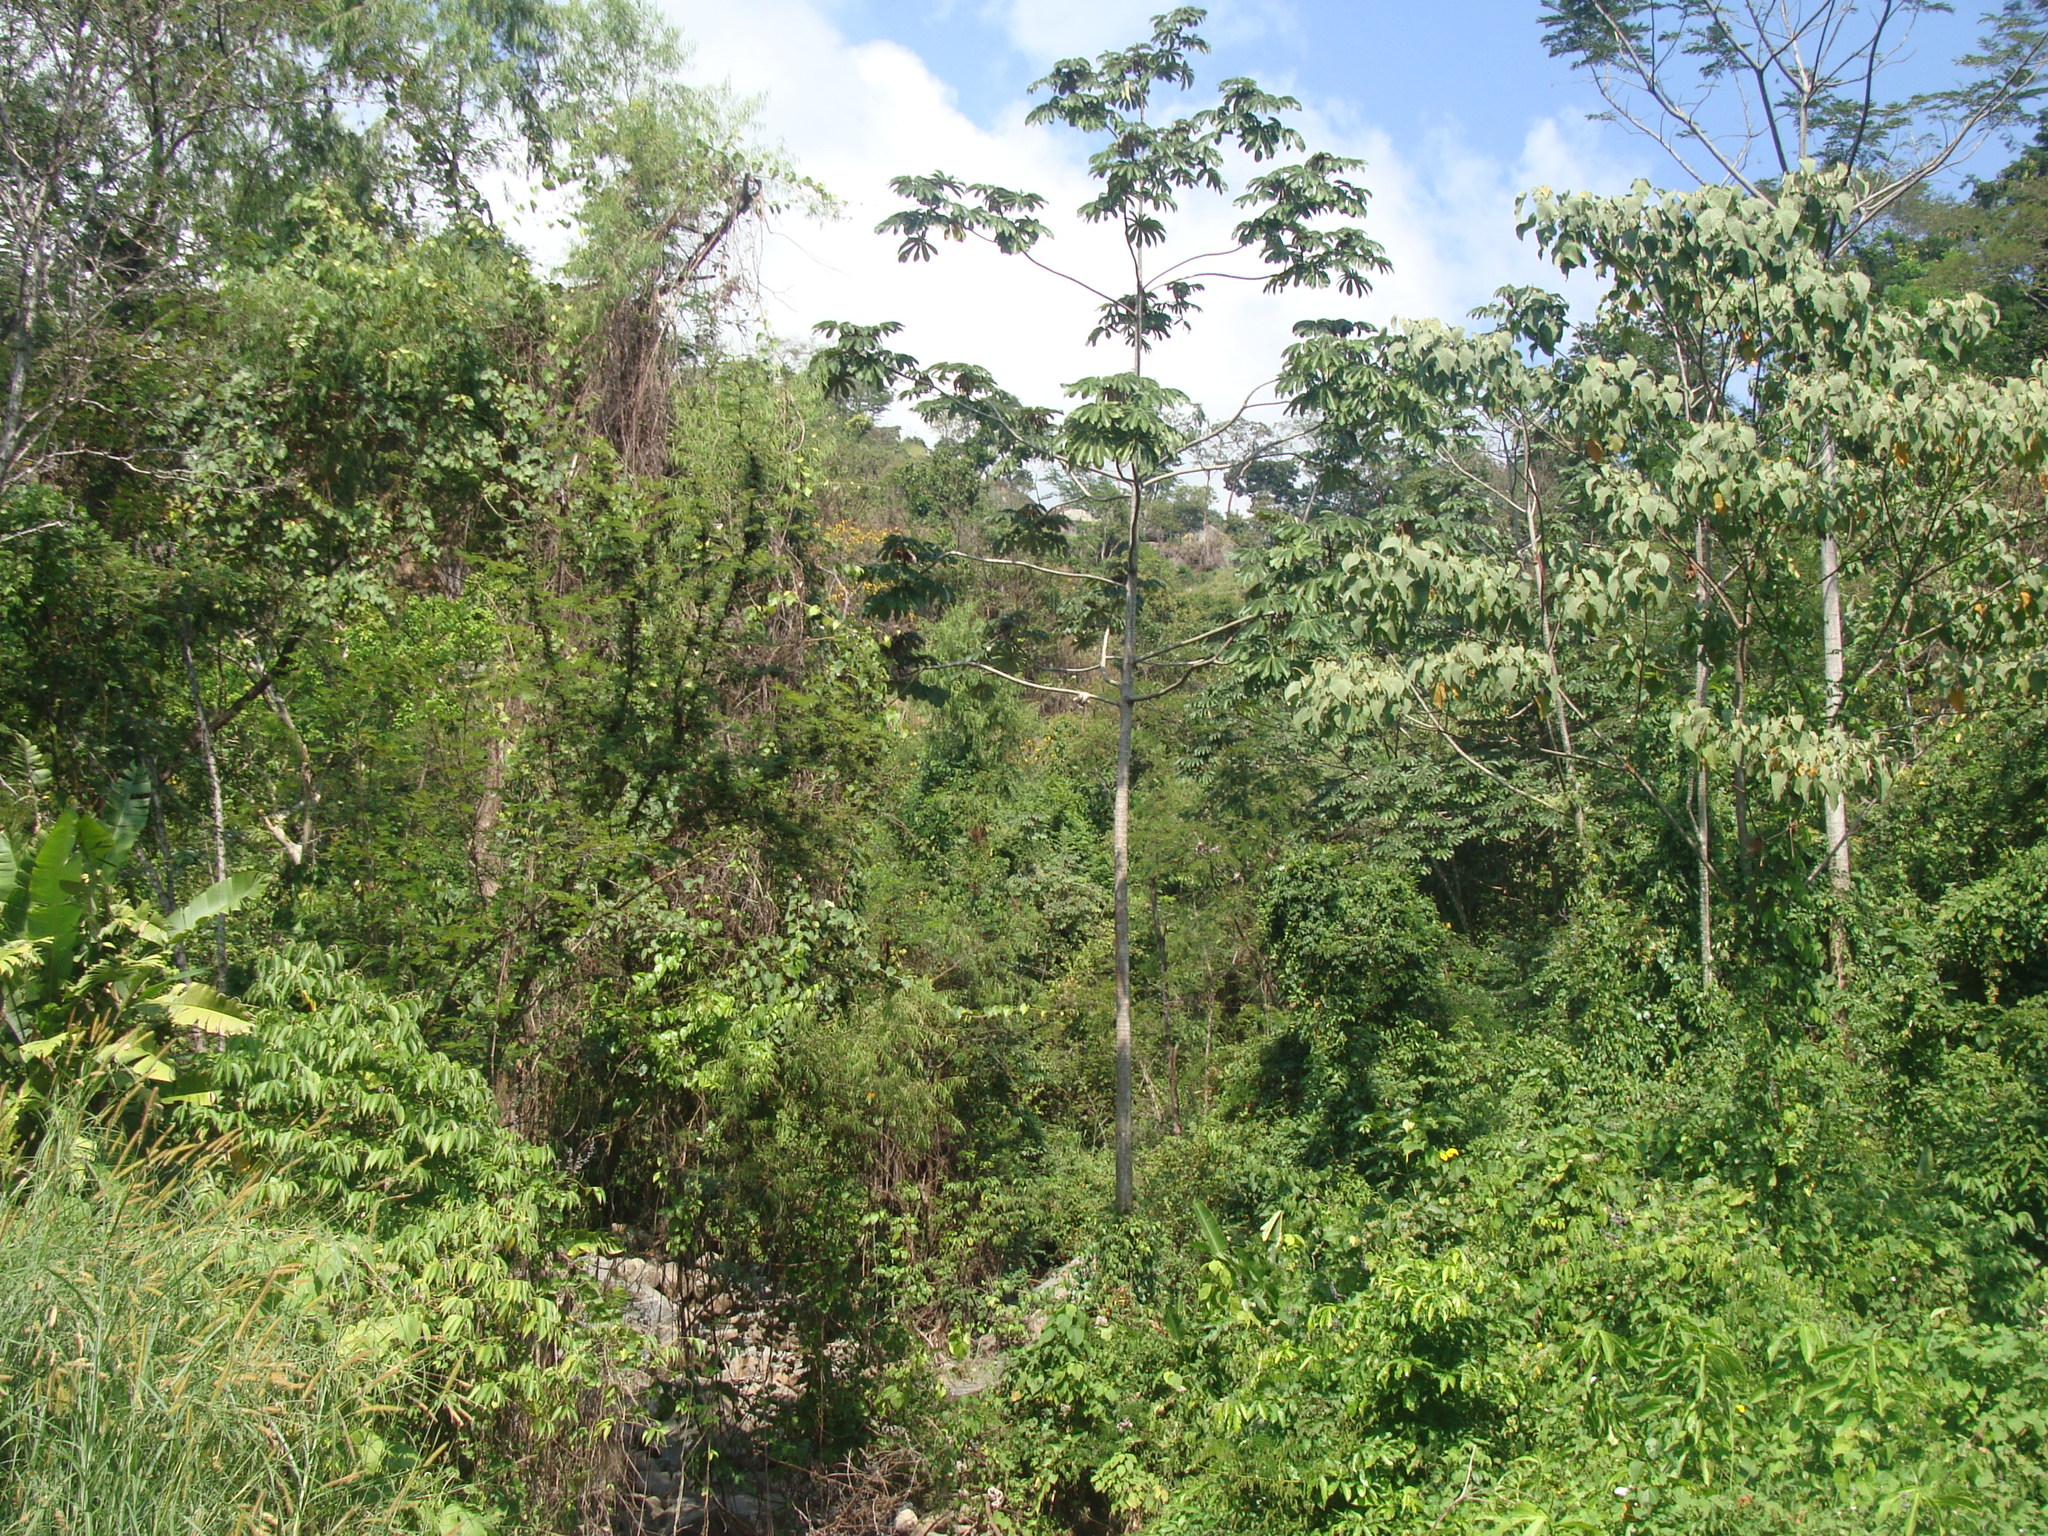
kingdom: Plantae
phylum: Tracheophyta
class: Magnoliopsida
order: Rosales
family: Urticaceae
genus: Cecropia
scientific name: Cecropia obtusifolia
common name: Trumpet tree
